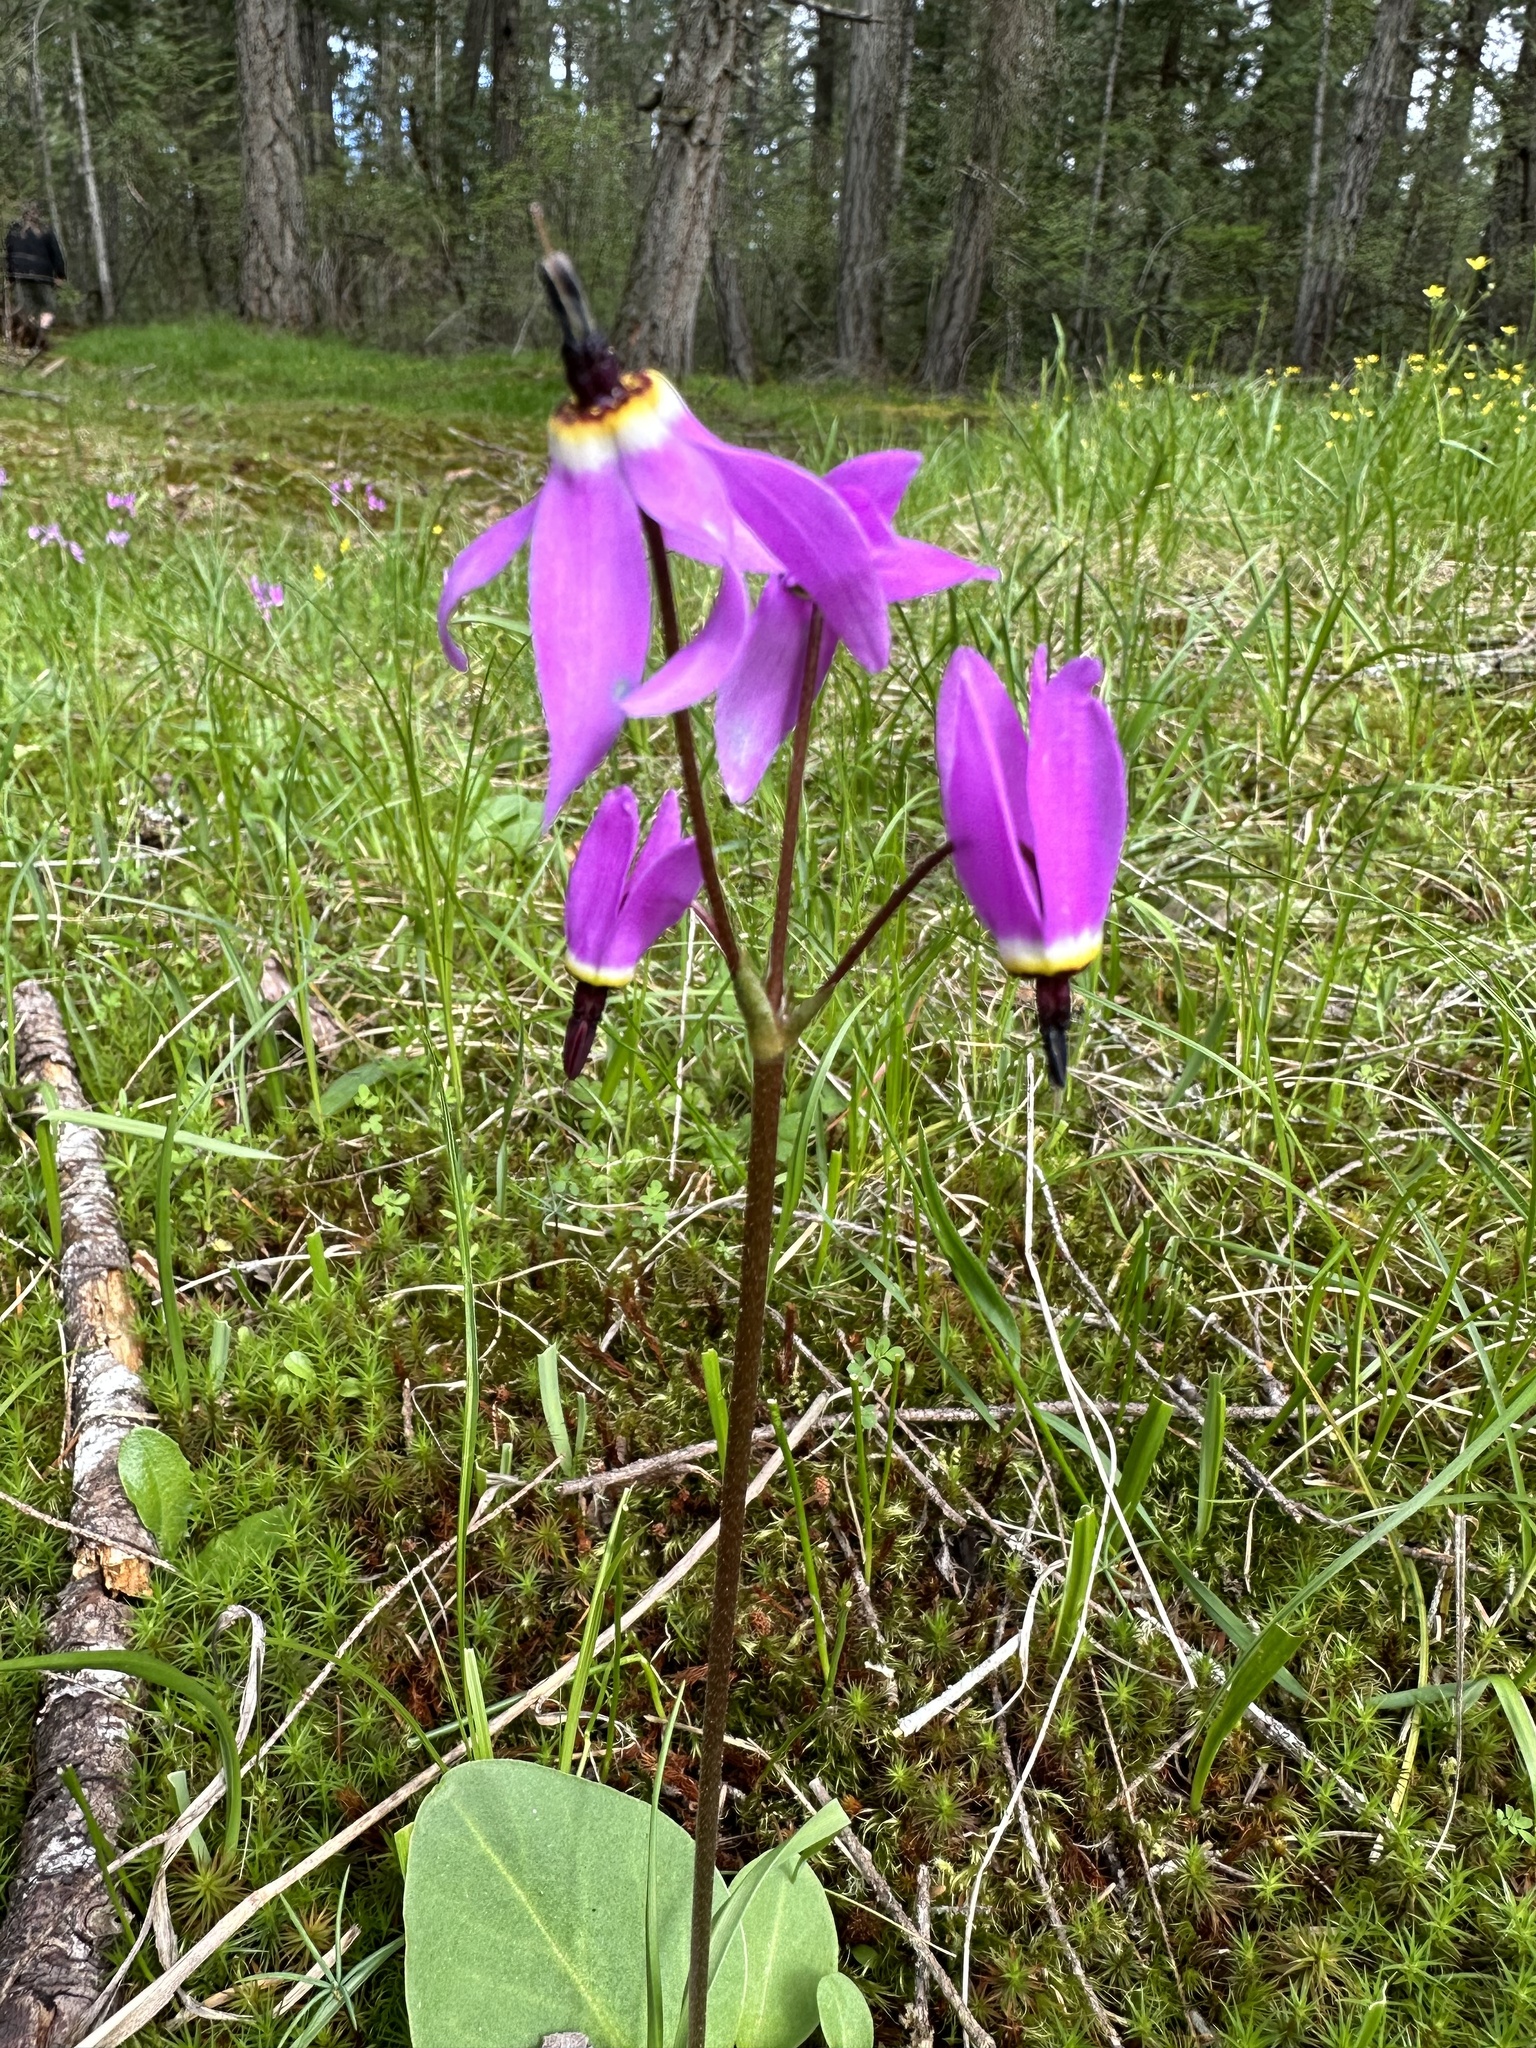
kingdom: Plantae
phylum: Tracheophyta
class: Magnoliopsida
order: Ericales
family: Primulaceae
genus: Dodecatheon
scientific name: Dodecatheon hendersonii
